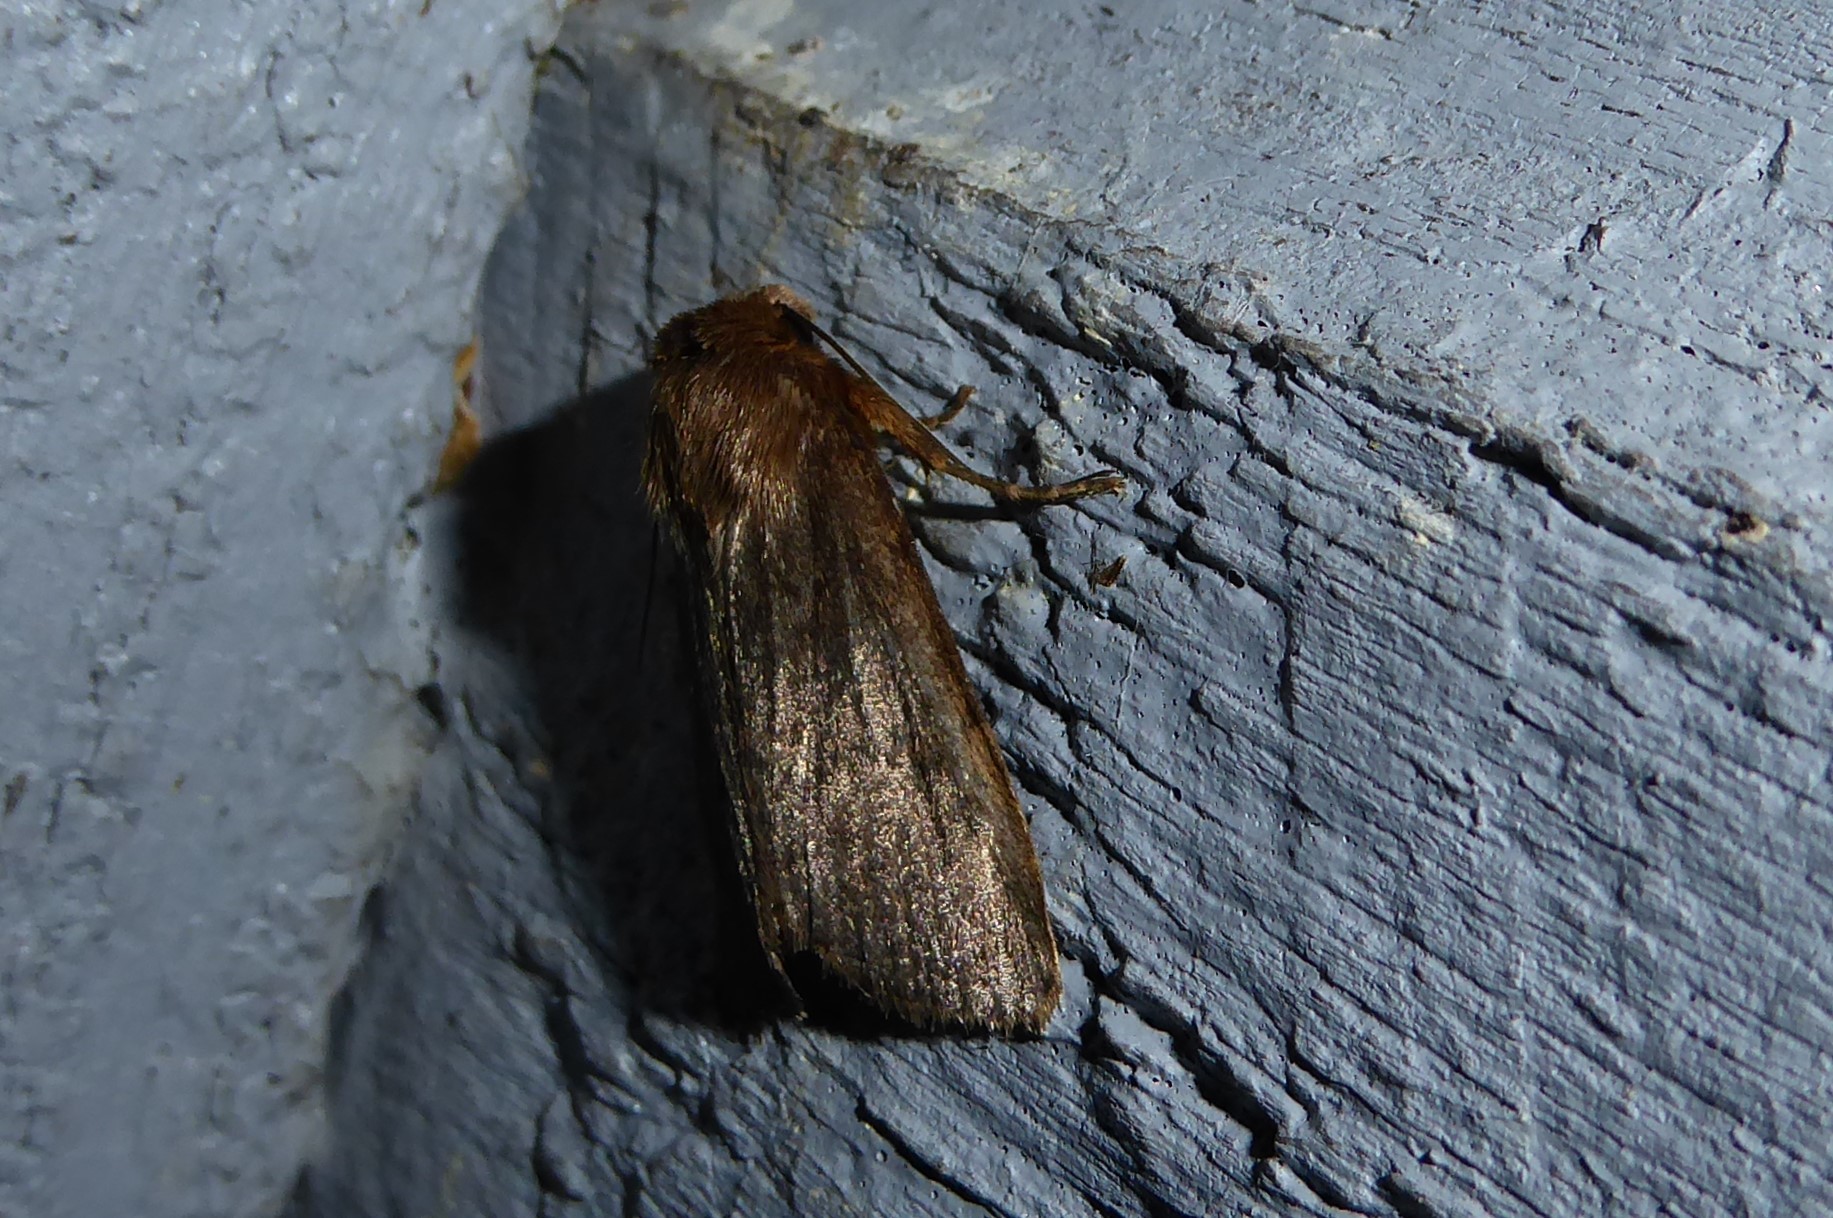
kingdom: Animalia
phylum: Arthropoda
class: Insecta
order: Lepidoptera
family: Noctuidae
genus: Bityla
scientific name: Bityla defigurata
